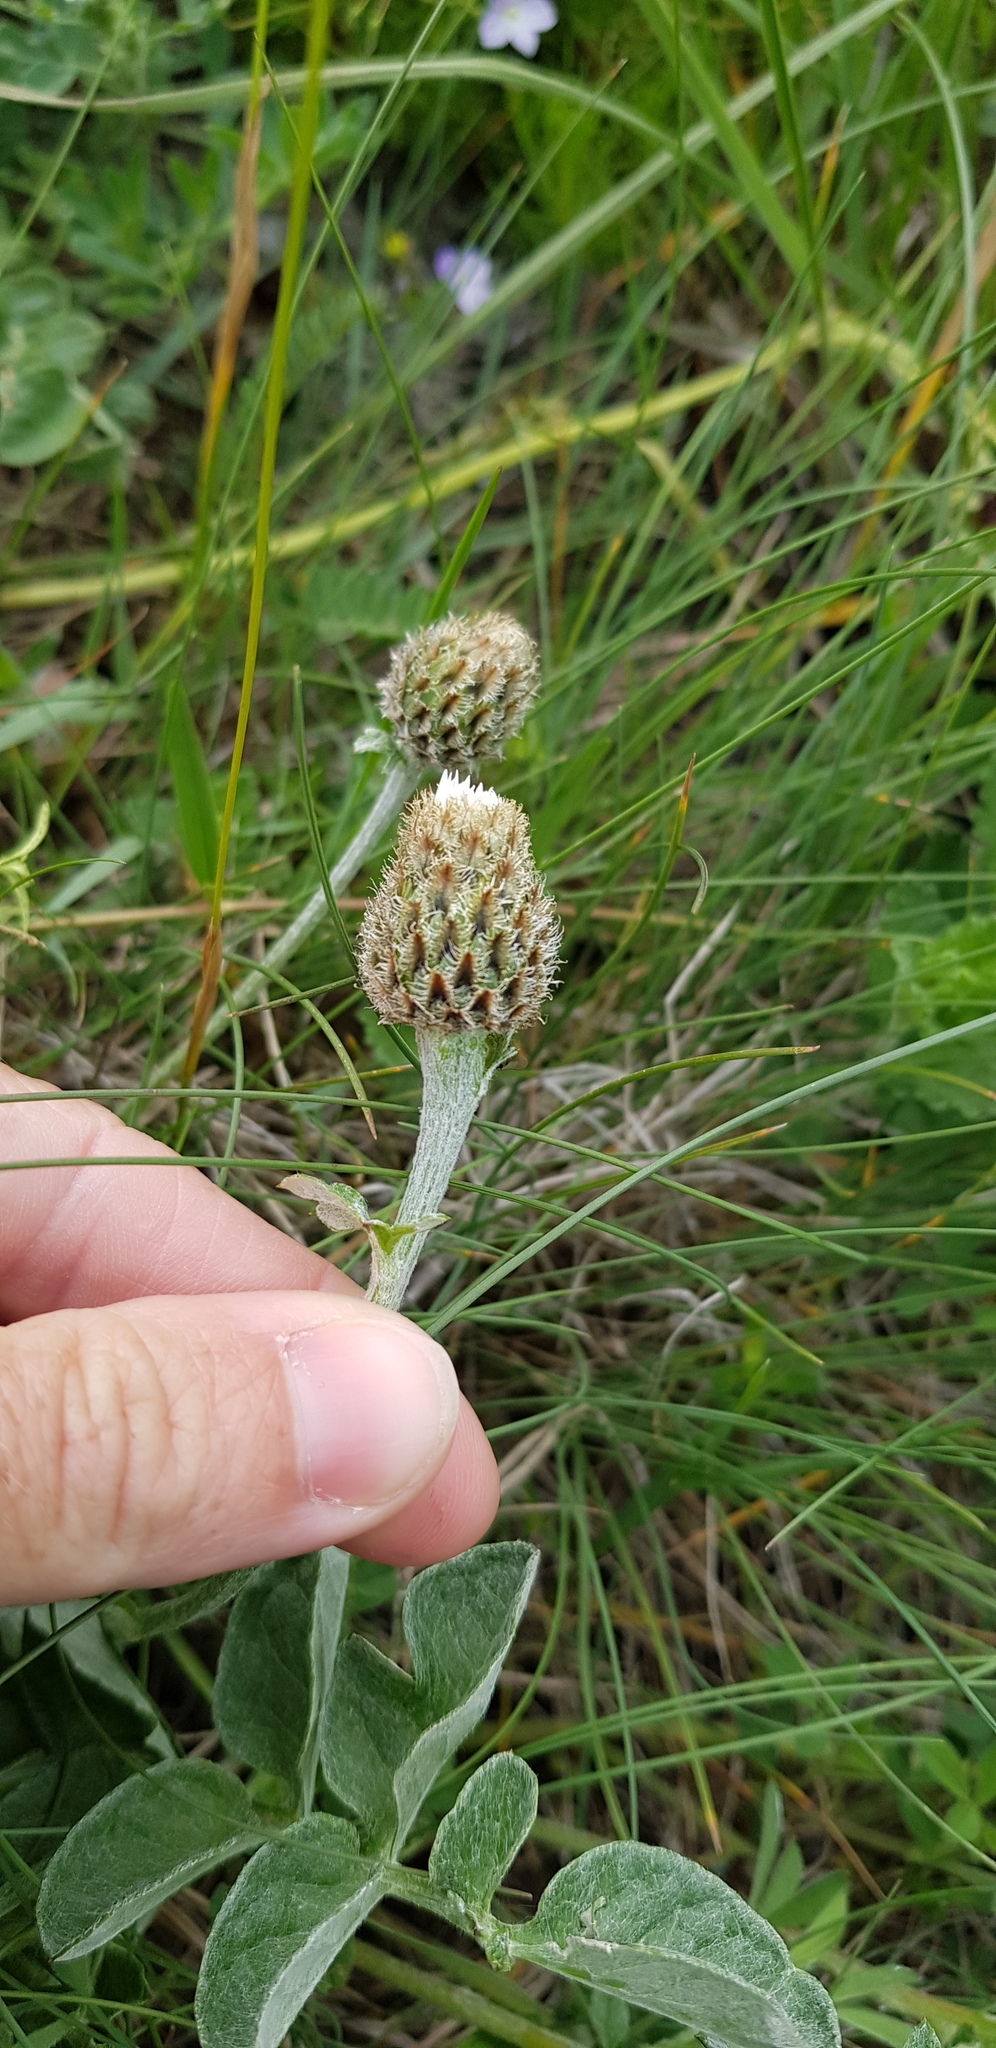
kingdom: Plantae
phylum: Tracheophyta
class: Magnoliopsida
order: Asterales
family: Asteraceae
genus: Psephellus
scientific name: Psephellus declinatus
